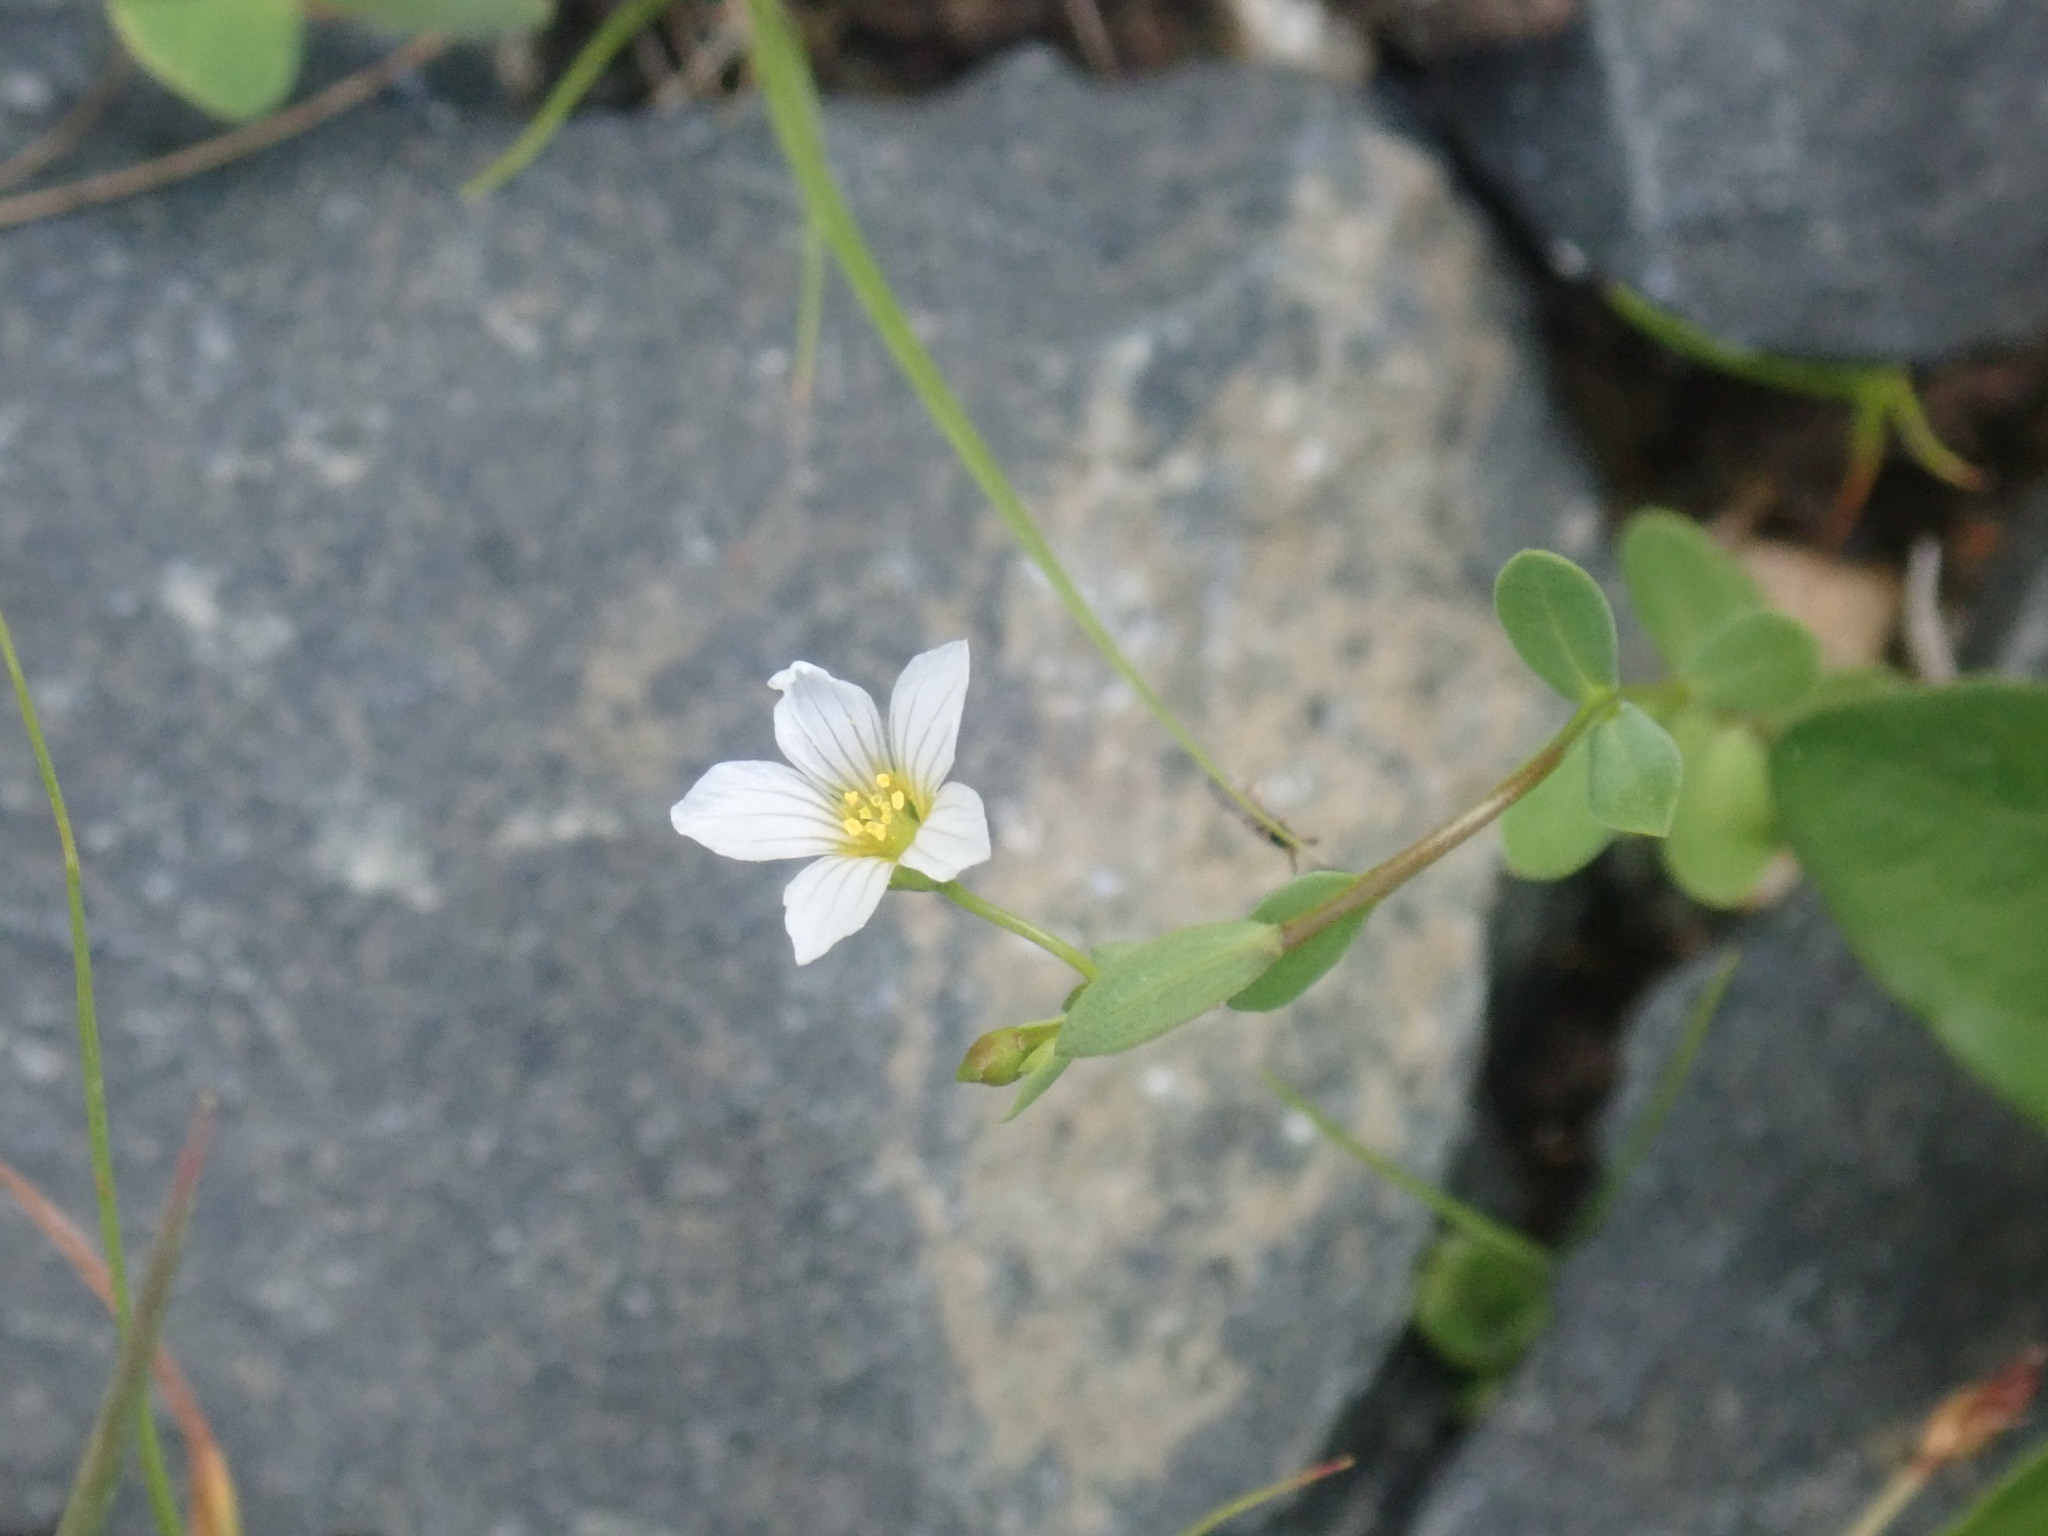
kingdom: Plantae
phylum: Tracheophyta
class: Magnoliopsida
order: Malpighiales
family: Linaceae
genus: Linum
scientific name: Linum catharticum
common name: Fairy flax
